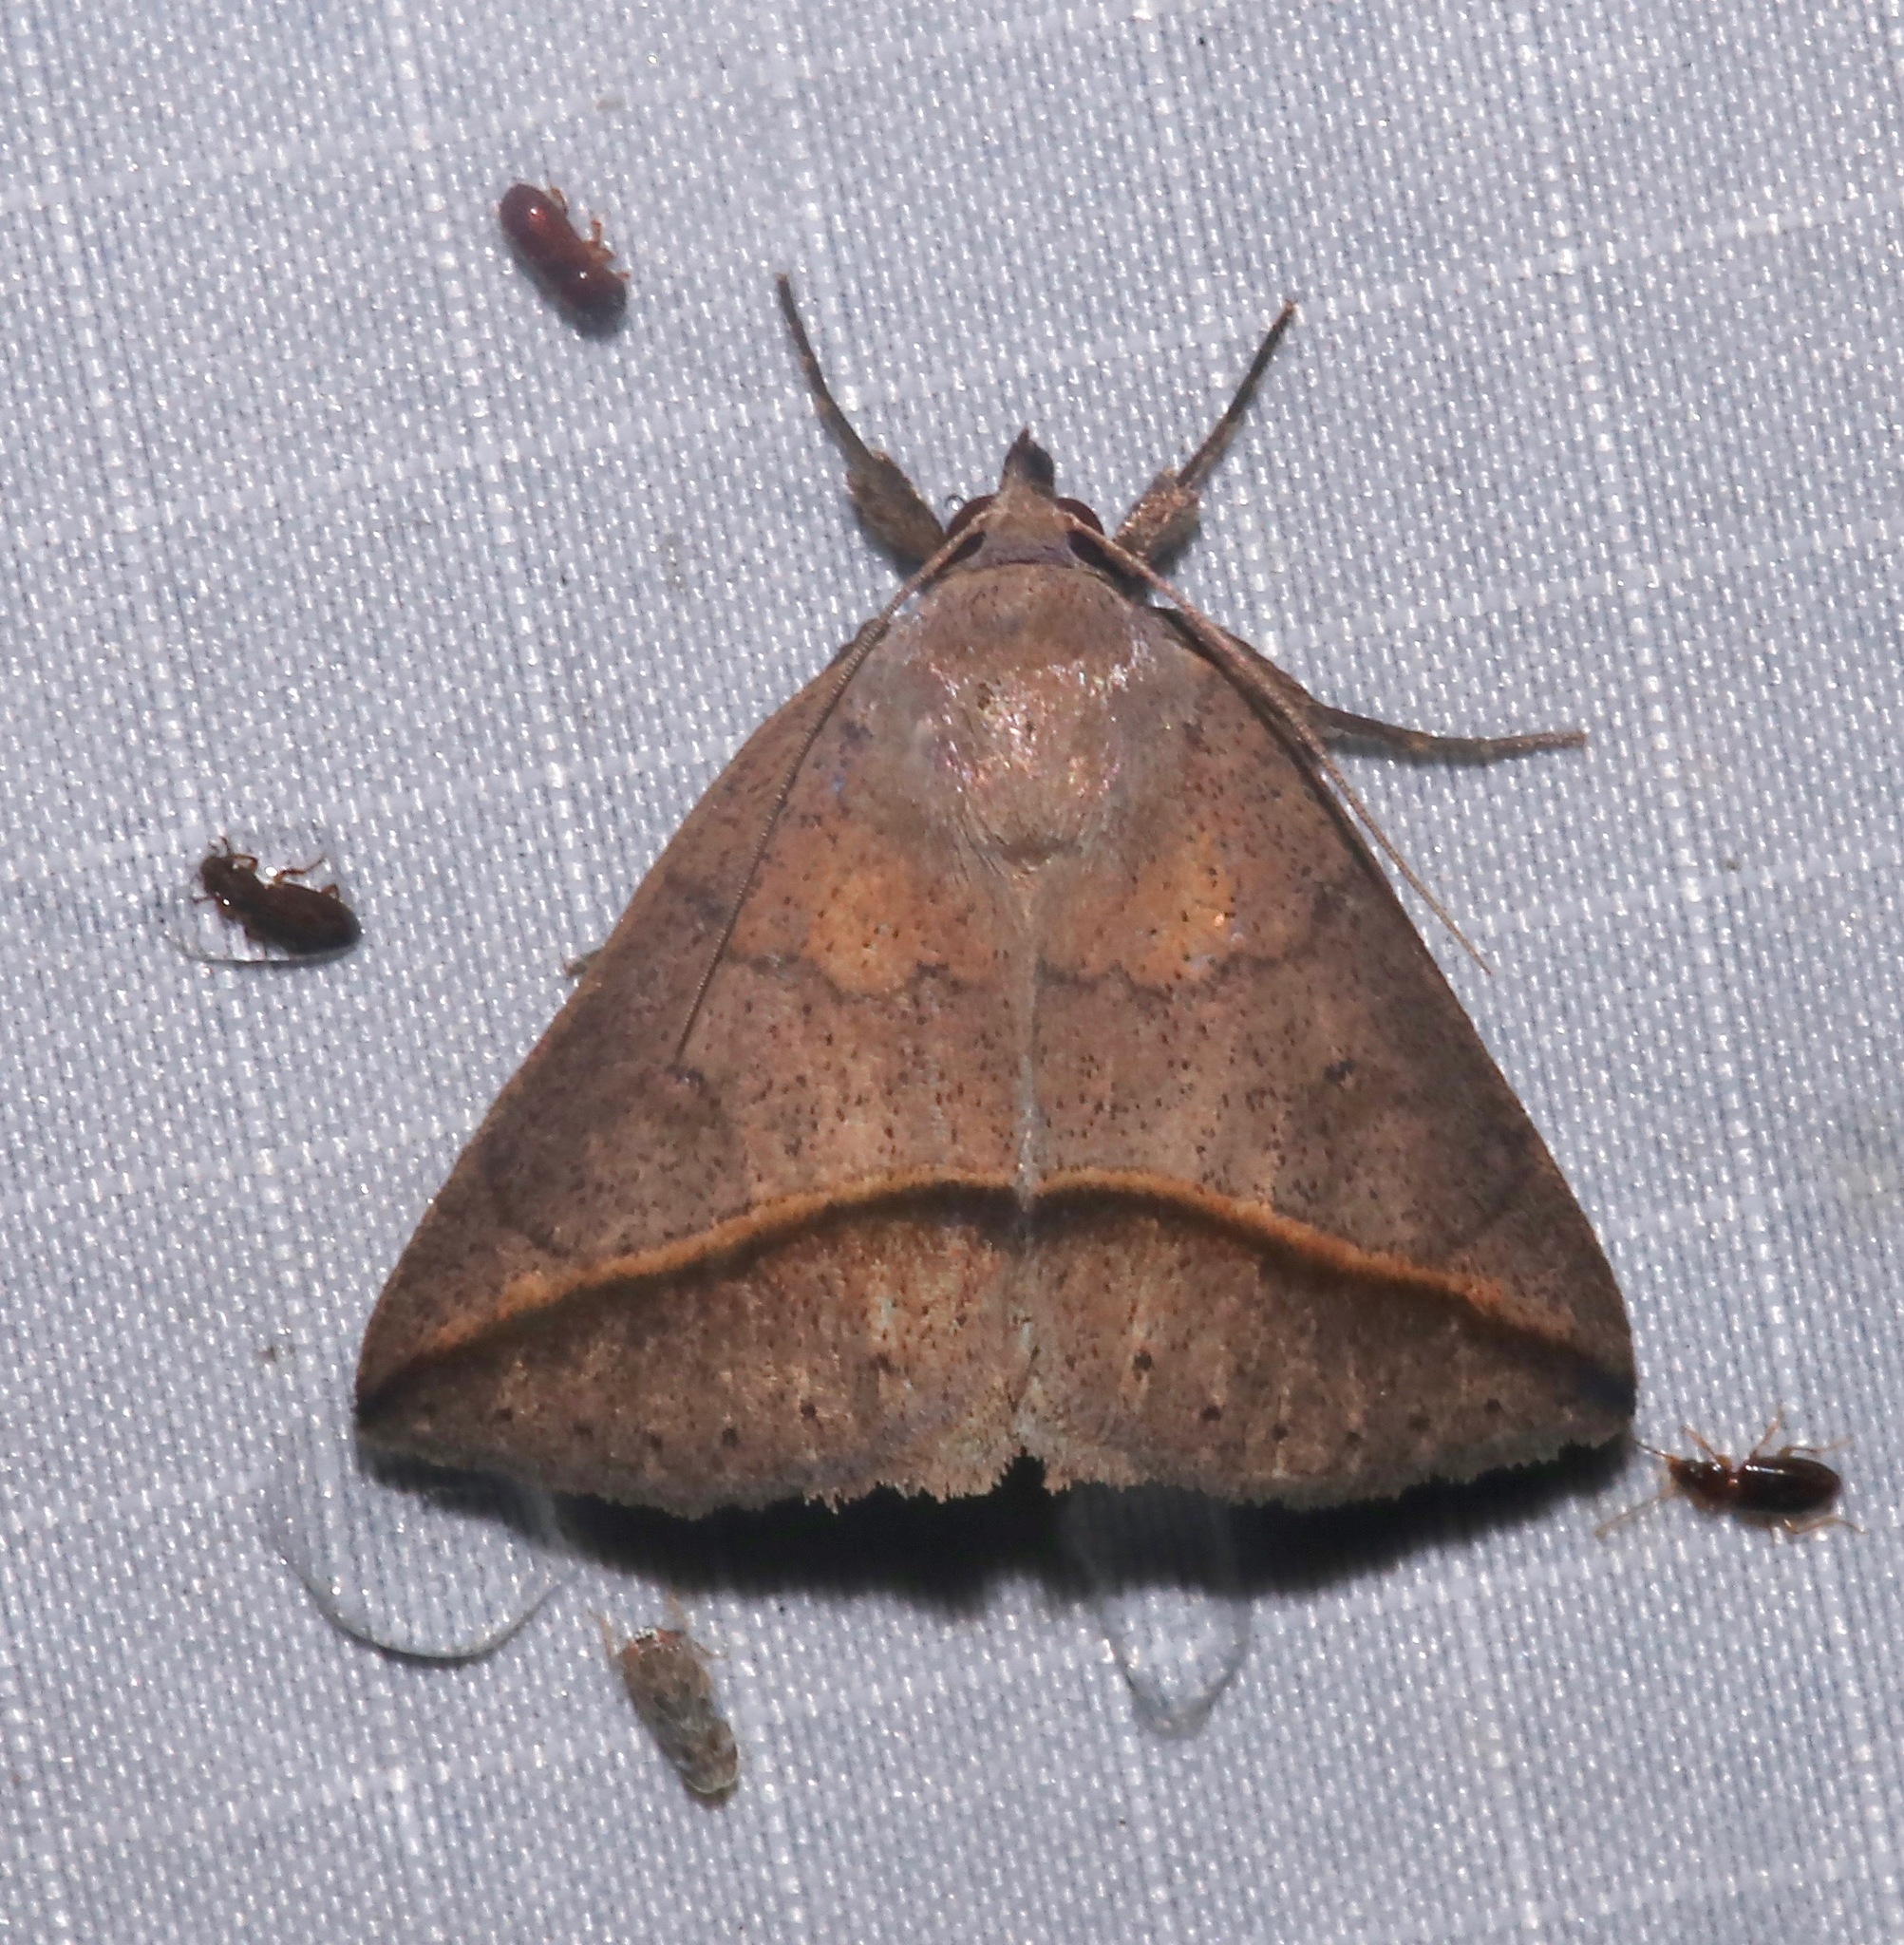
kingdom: Animalia
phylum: Arthropoda
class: Insecta
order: Lepidoptera
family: Erebidae
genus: Argyrostrotis
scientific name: Argyrostrotis flavistriaria
